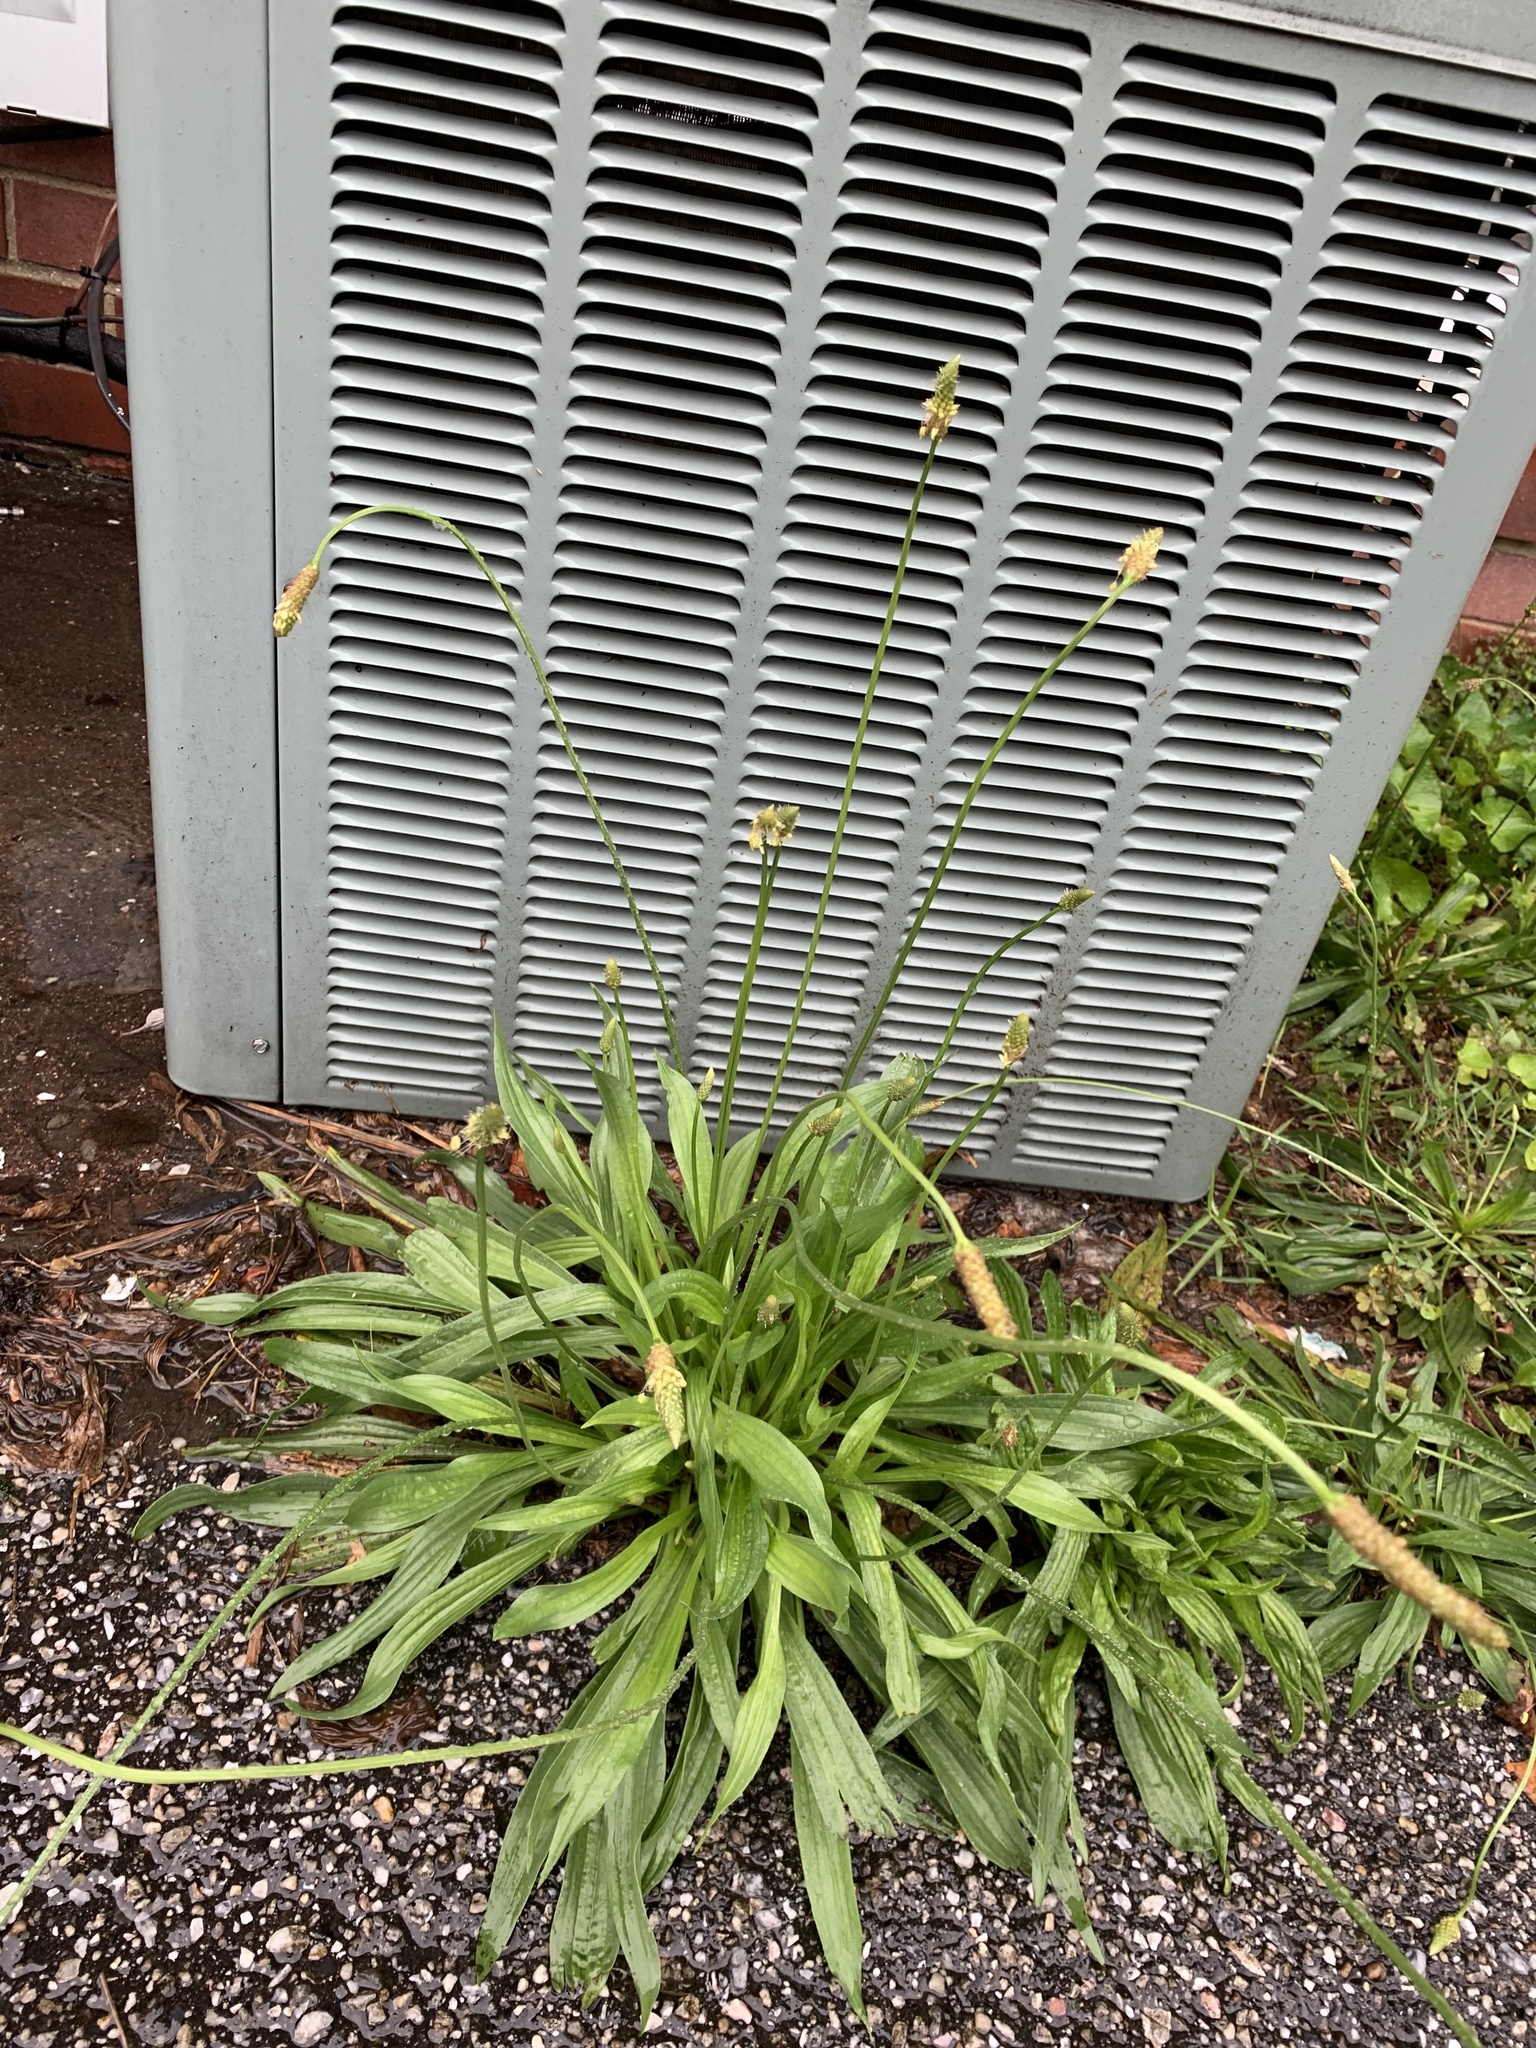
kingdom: Plantae
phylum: Tracheophyta
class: Magnoliopsida
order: Lamiales
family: Plantaginaceae
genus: Plantago
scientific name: Plantago lanceolata
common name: Ribwort plantain
